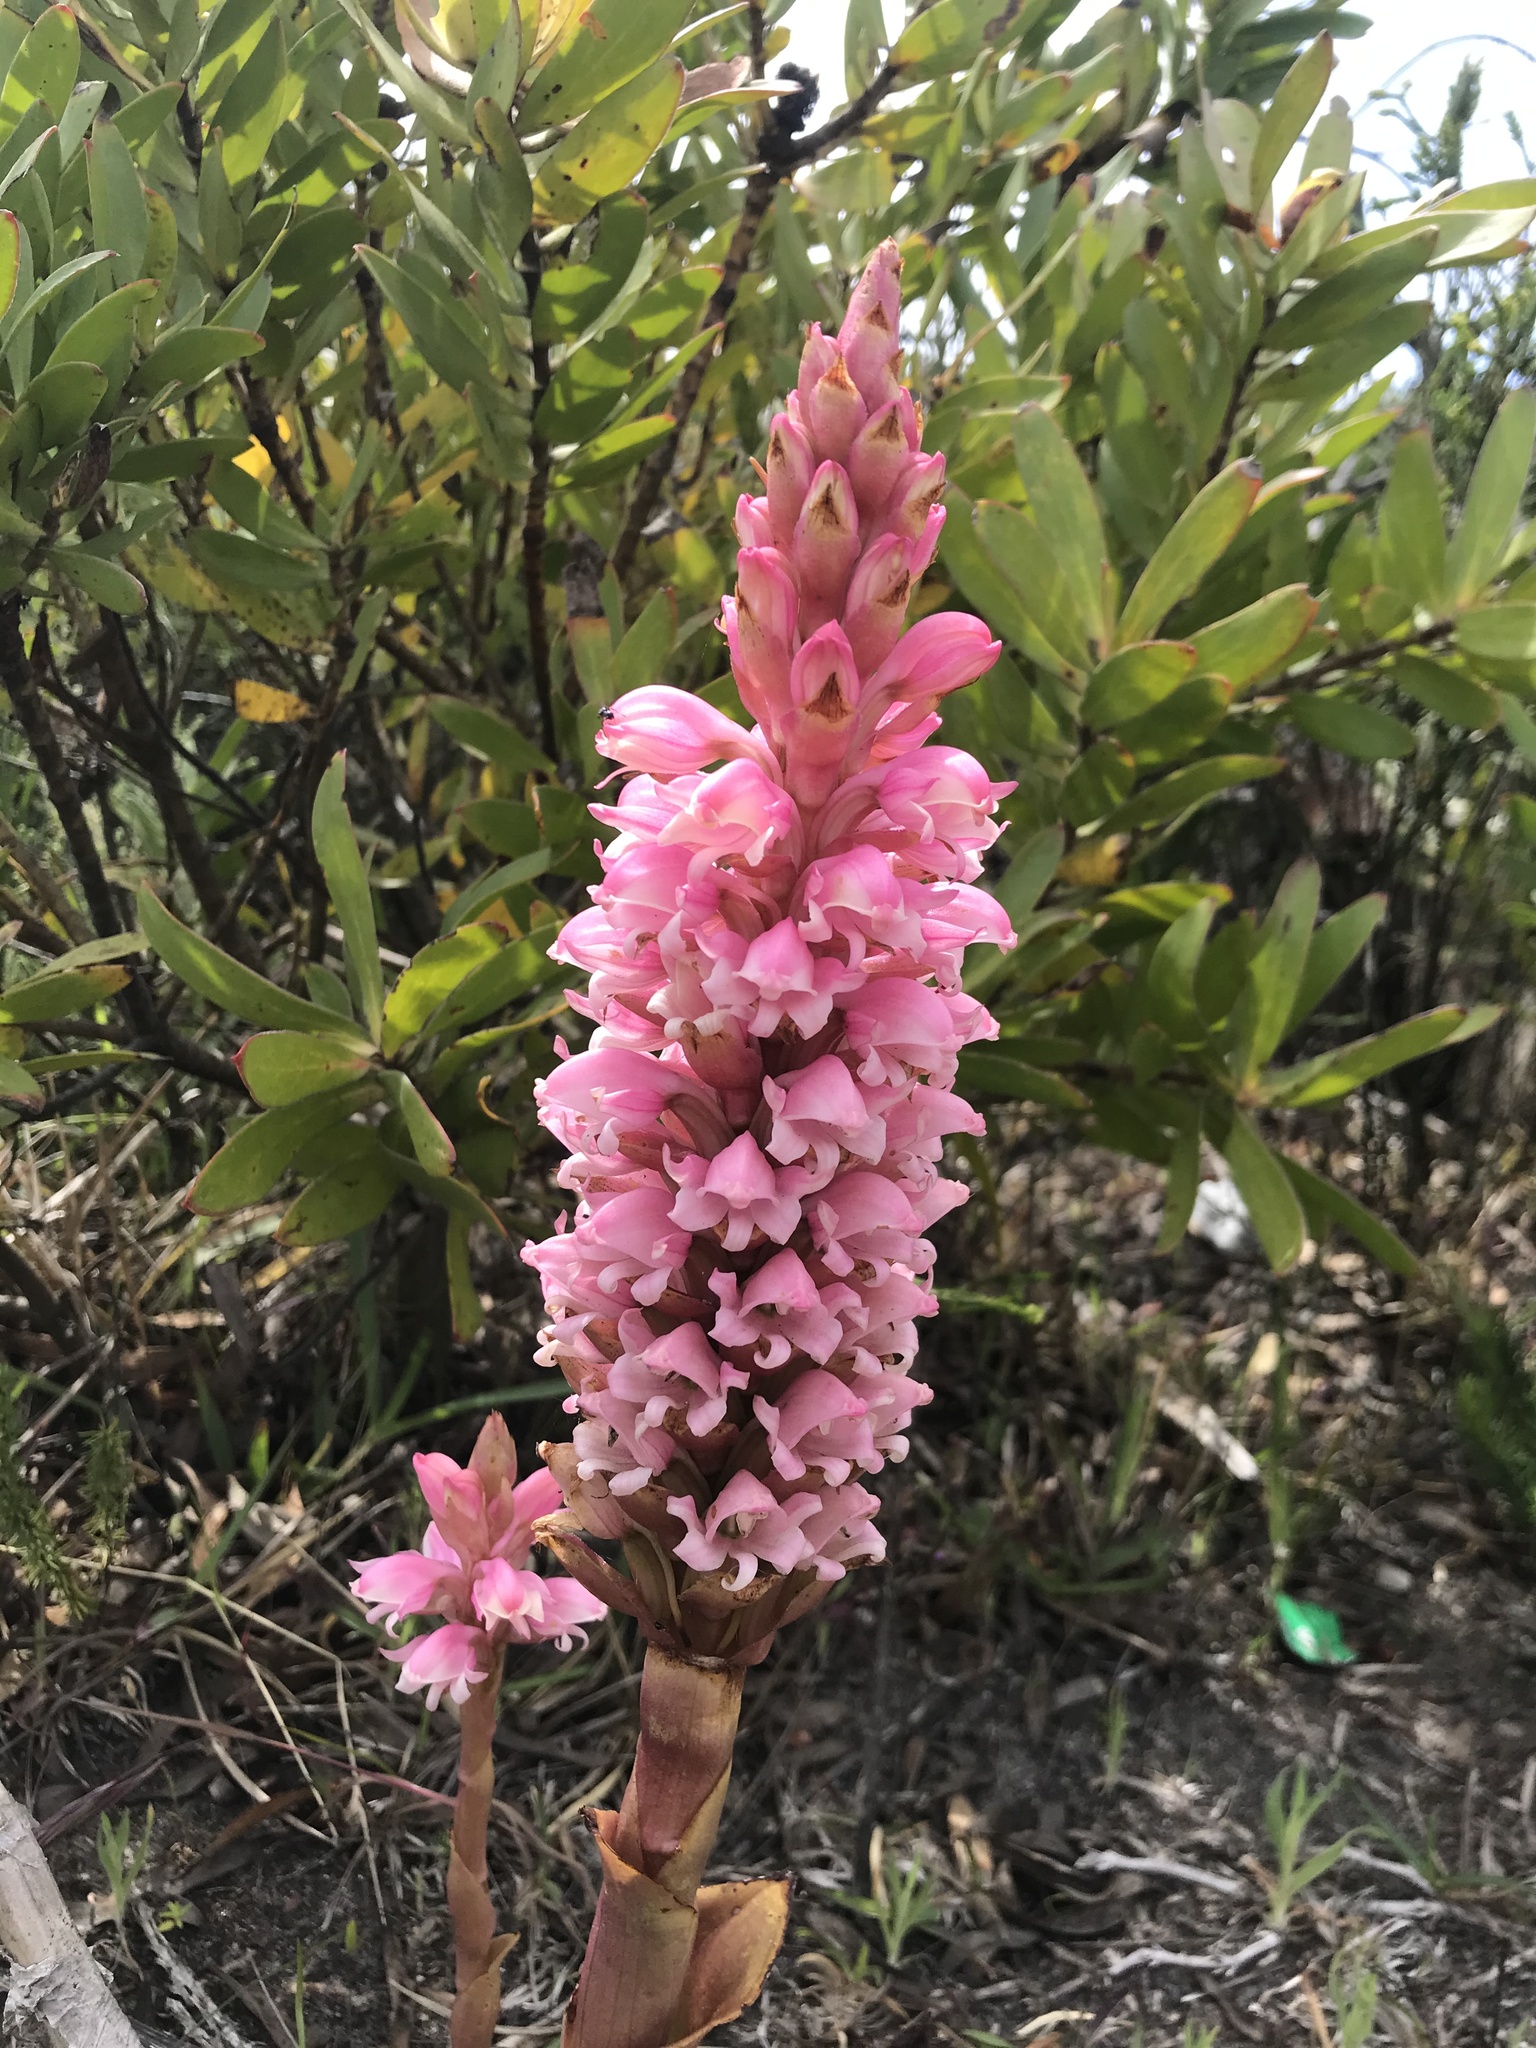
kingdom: Plantae
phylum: Tracheophyta
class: Liliopsida
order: Asparagales
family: Orchidaceae
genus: Satyrium
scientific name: Satyrium carneum
